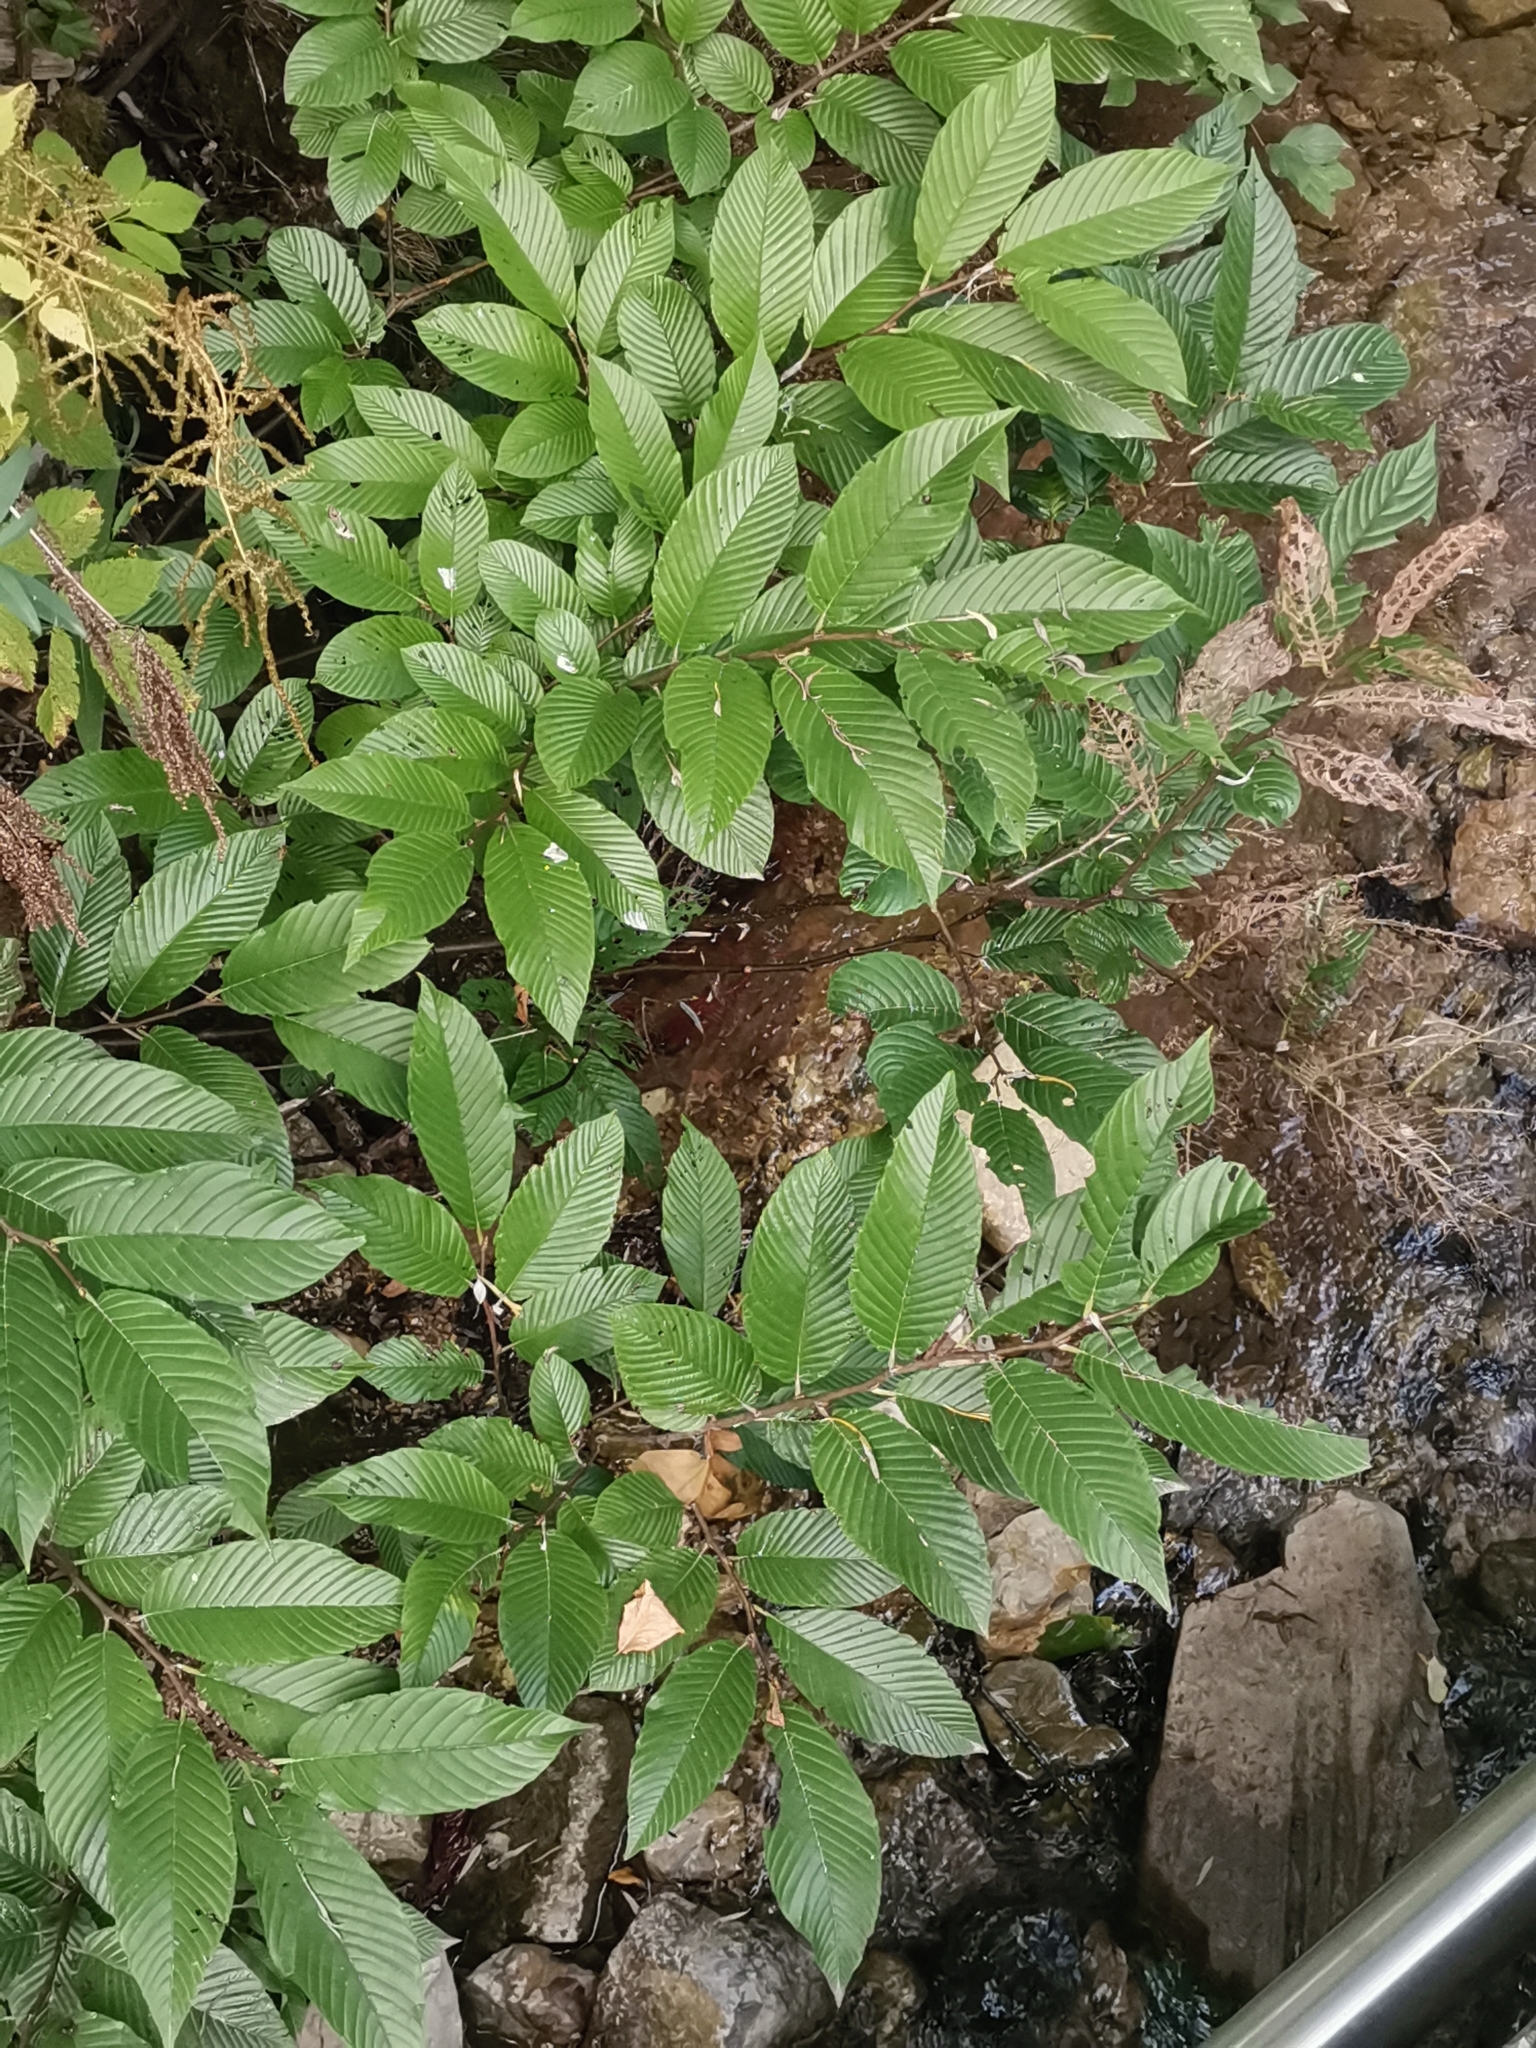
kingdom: Plantae
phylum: Tracheophyta
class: Magnoliopsida
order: Rosales
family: Rhamnaceae
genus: Atadinus
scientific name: Atadinus fallax
